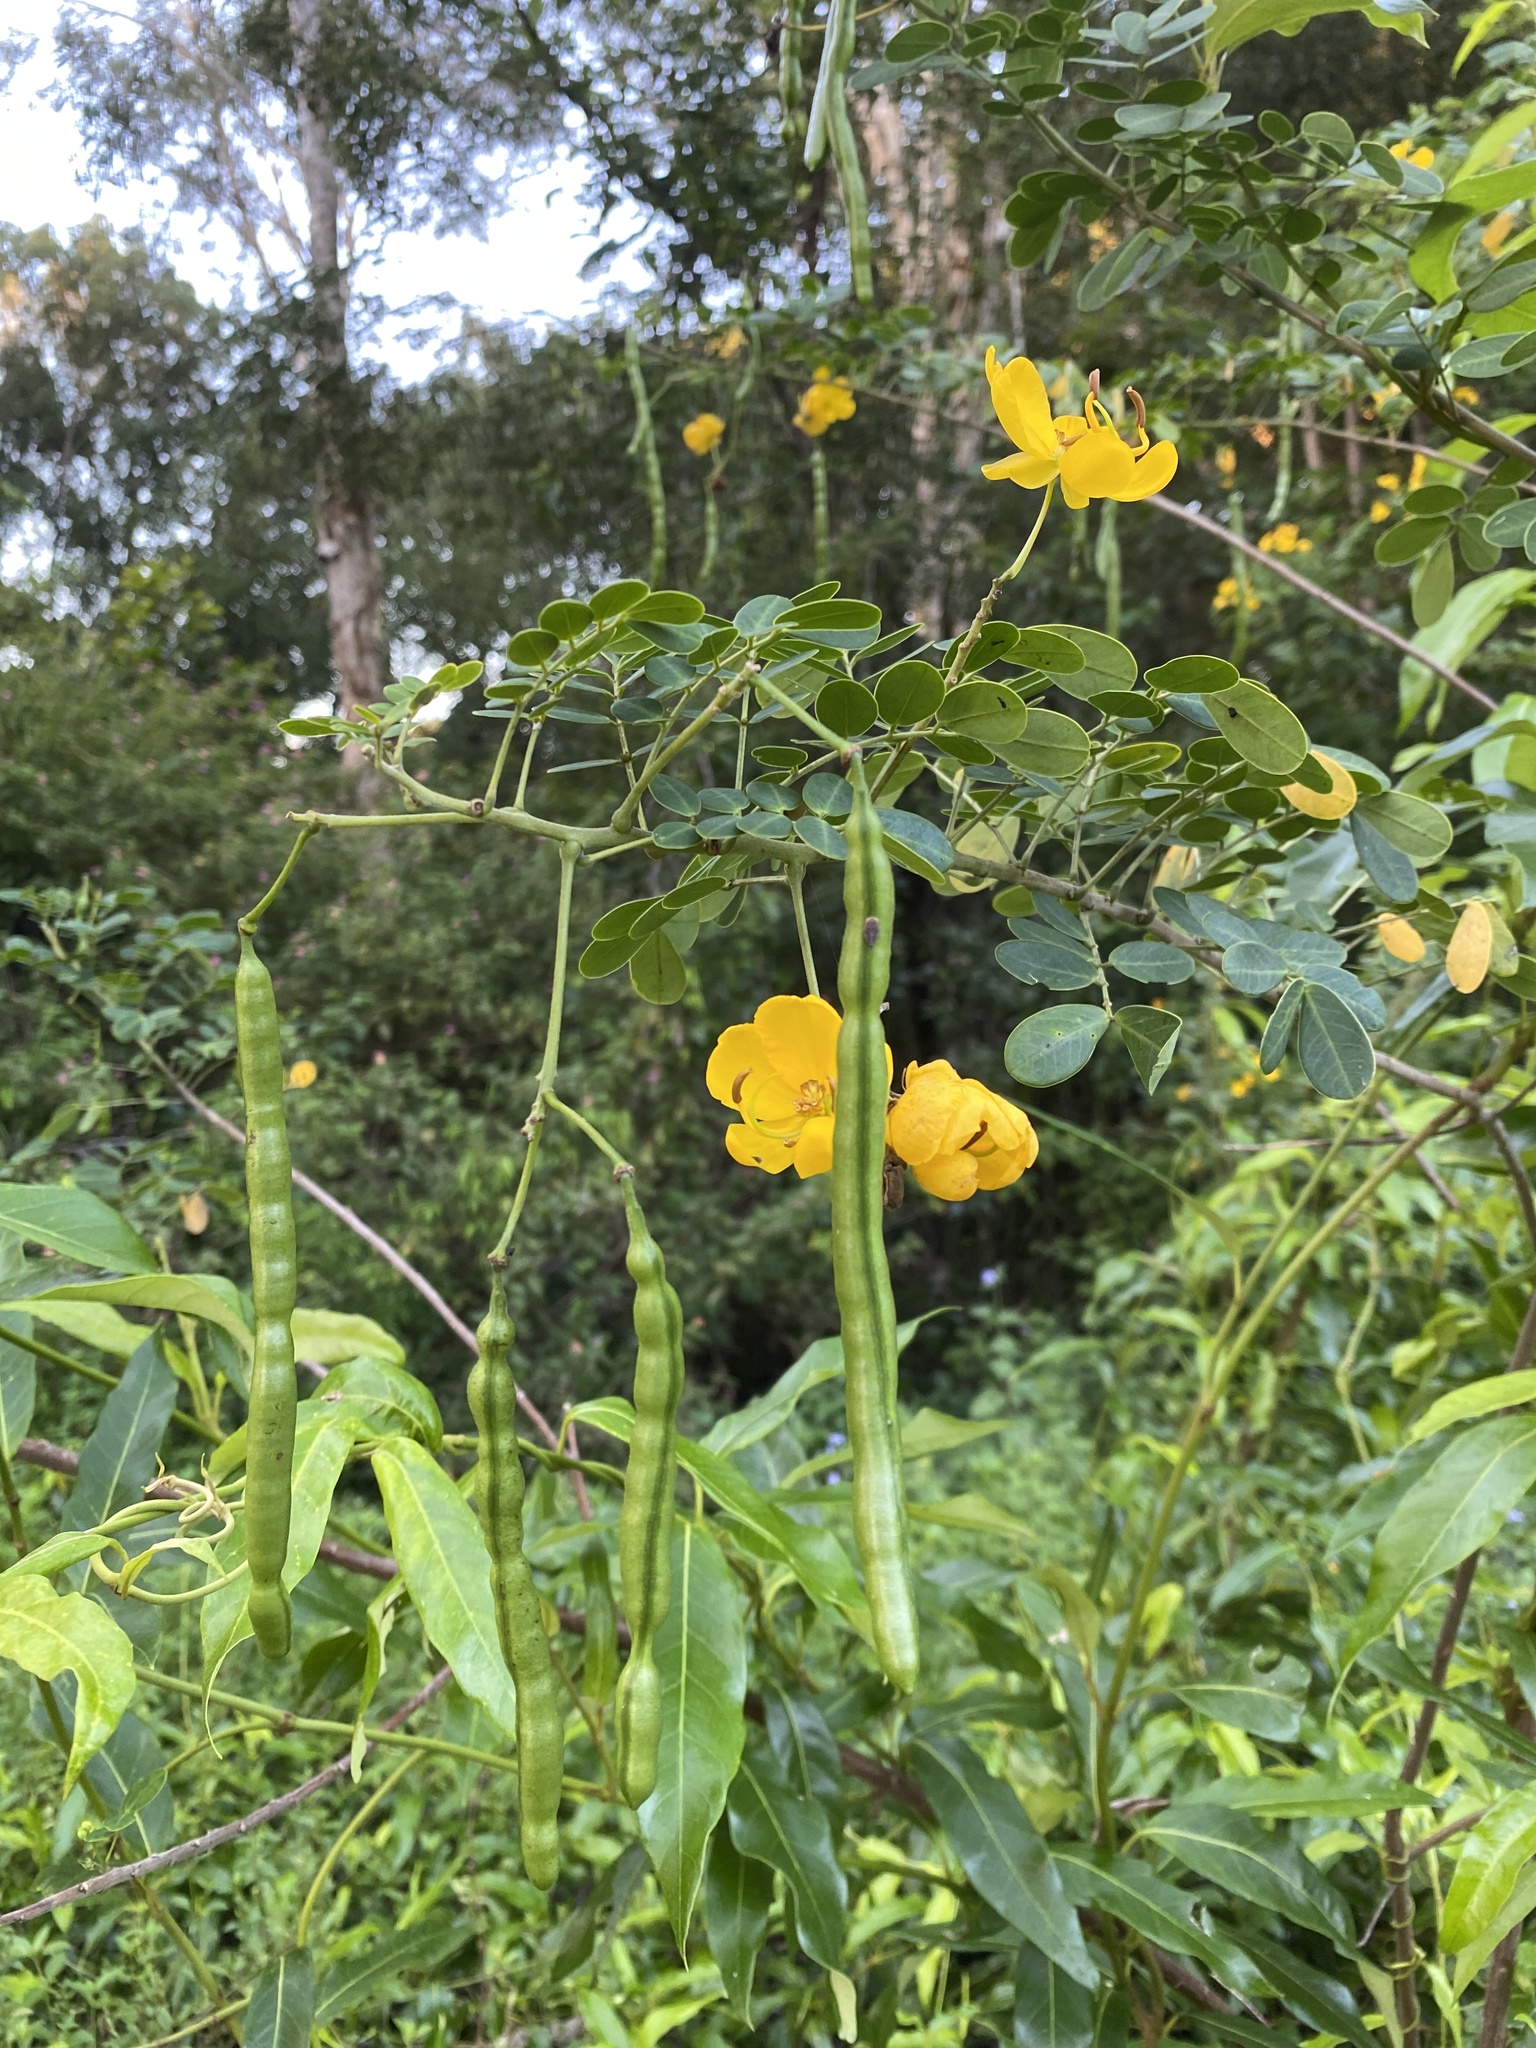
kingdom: Plantae
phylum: Tracheophyta
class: Magnoliopsida
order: Fabales
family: Fabaceae
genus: Senna
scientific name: Senna pendula
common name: Easter cassia
